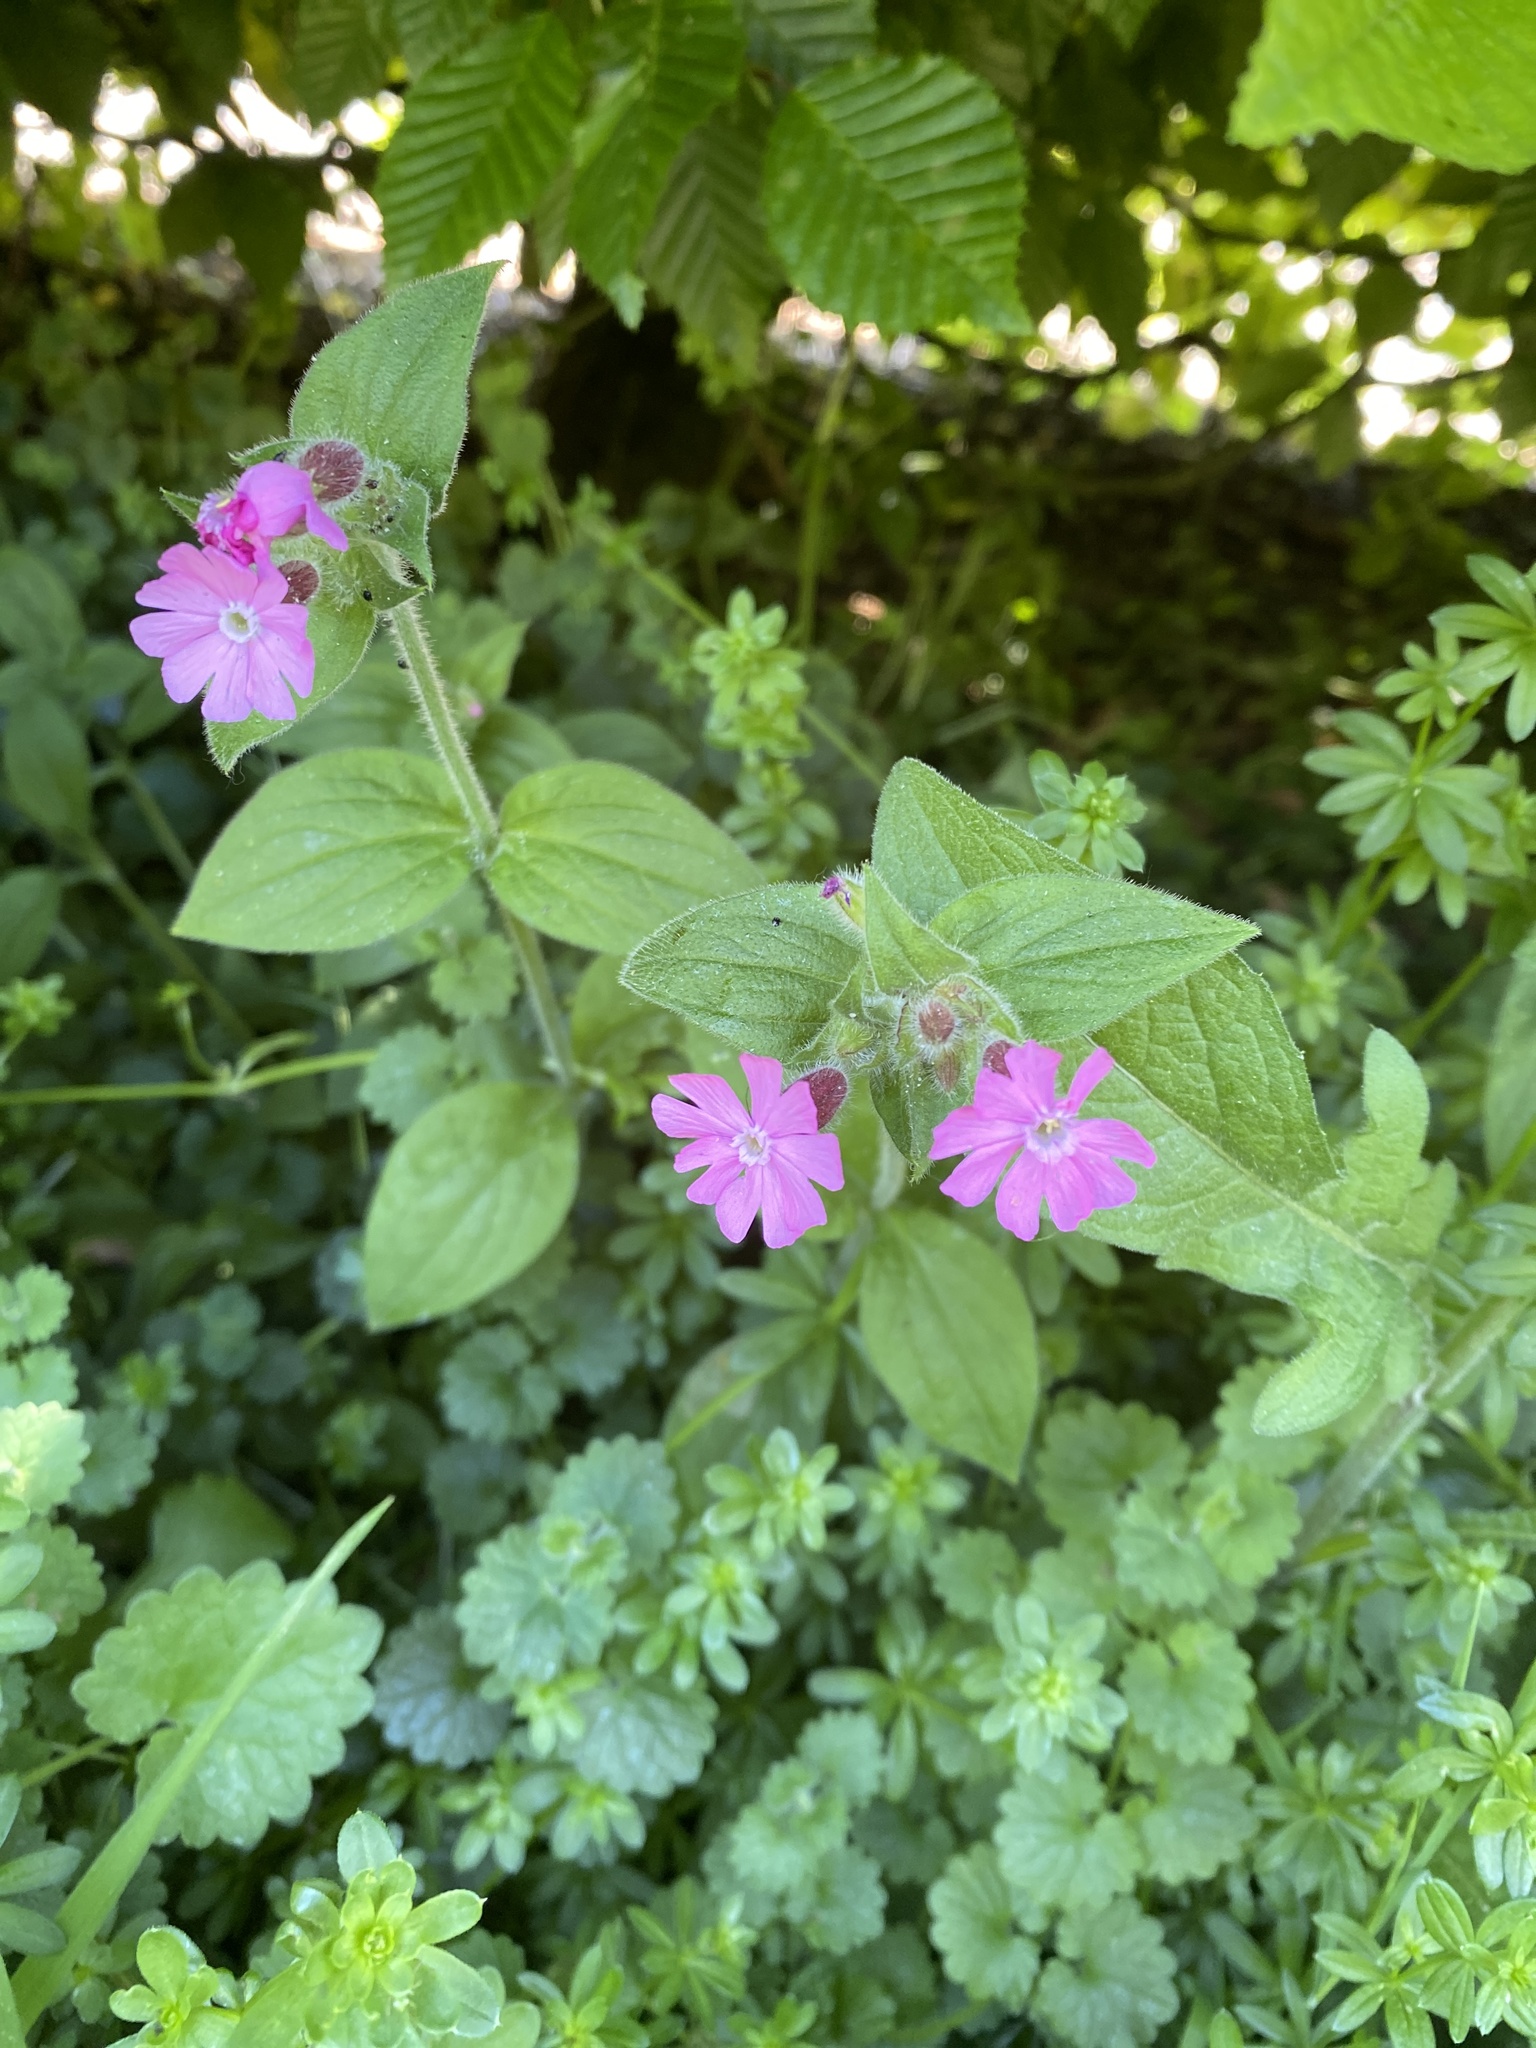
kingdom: Plantae
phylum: Tracheophyta
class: Magnoliopsida
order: Caryophyllales
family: Caryophyllaceae
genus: Silene
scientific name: Silene dioica
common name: Red campion
